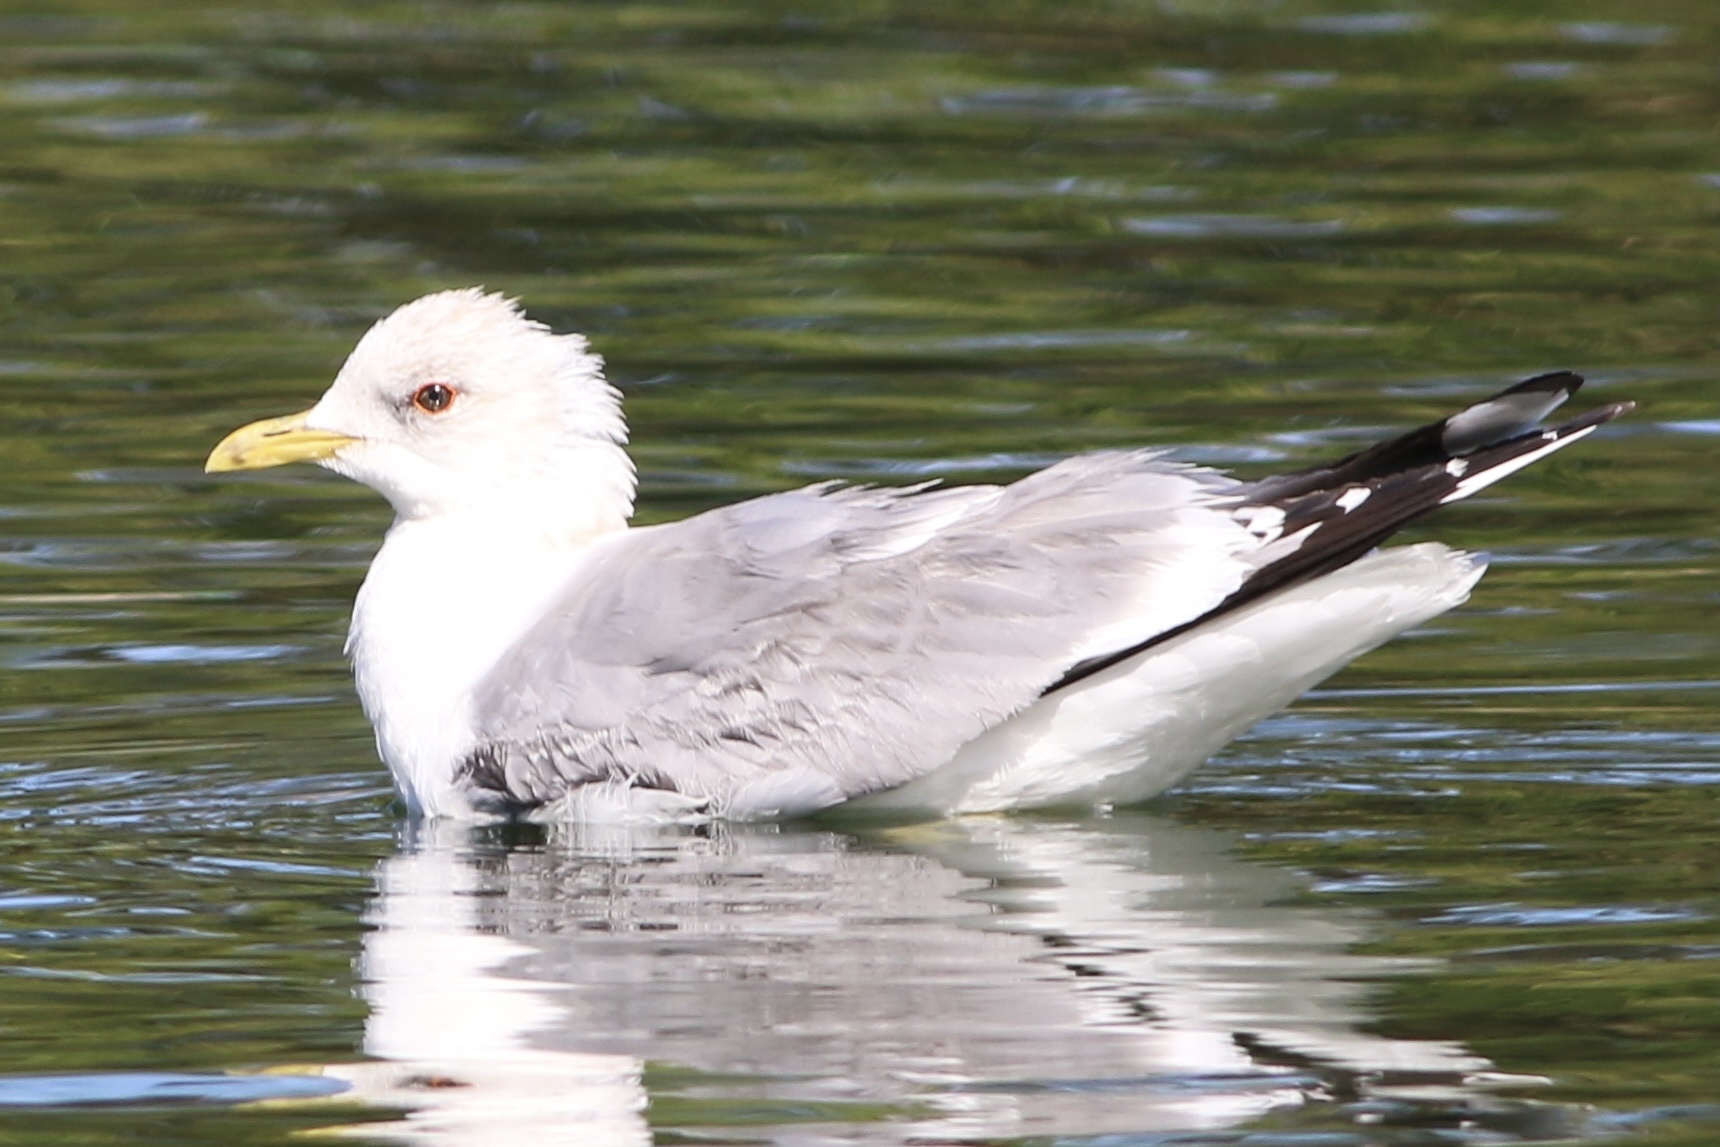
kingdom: Animalia
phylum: Chordata
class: Aves
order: Charadriiformes
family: Laridae
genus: Larus
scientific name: Larus brachyrhynchus
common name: Short-billed gull
